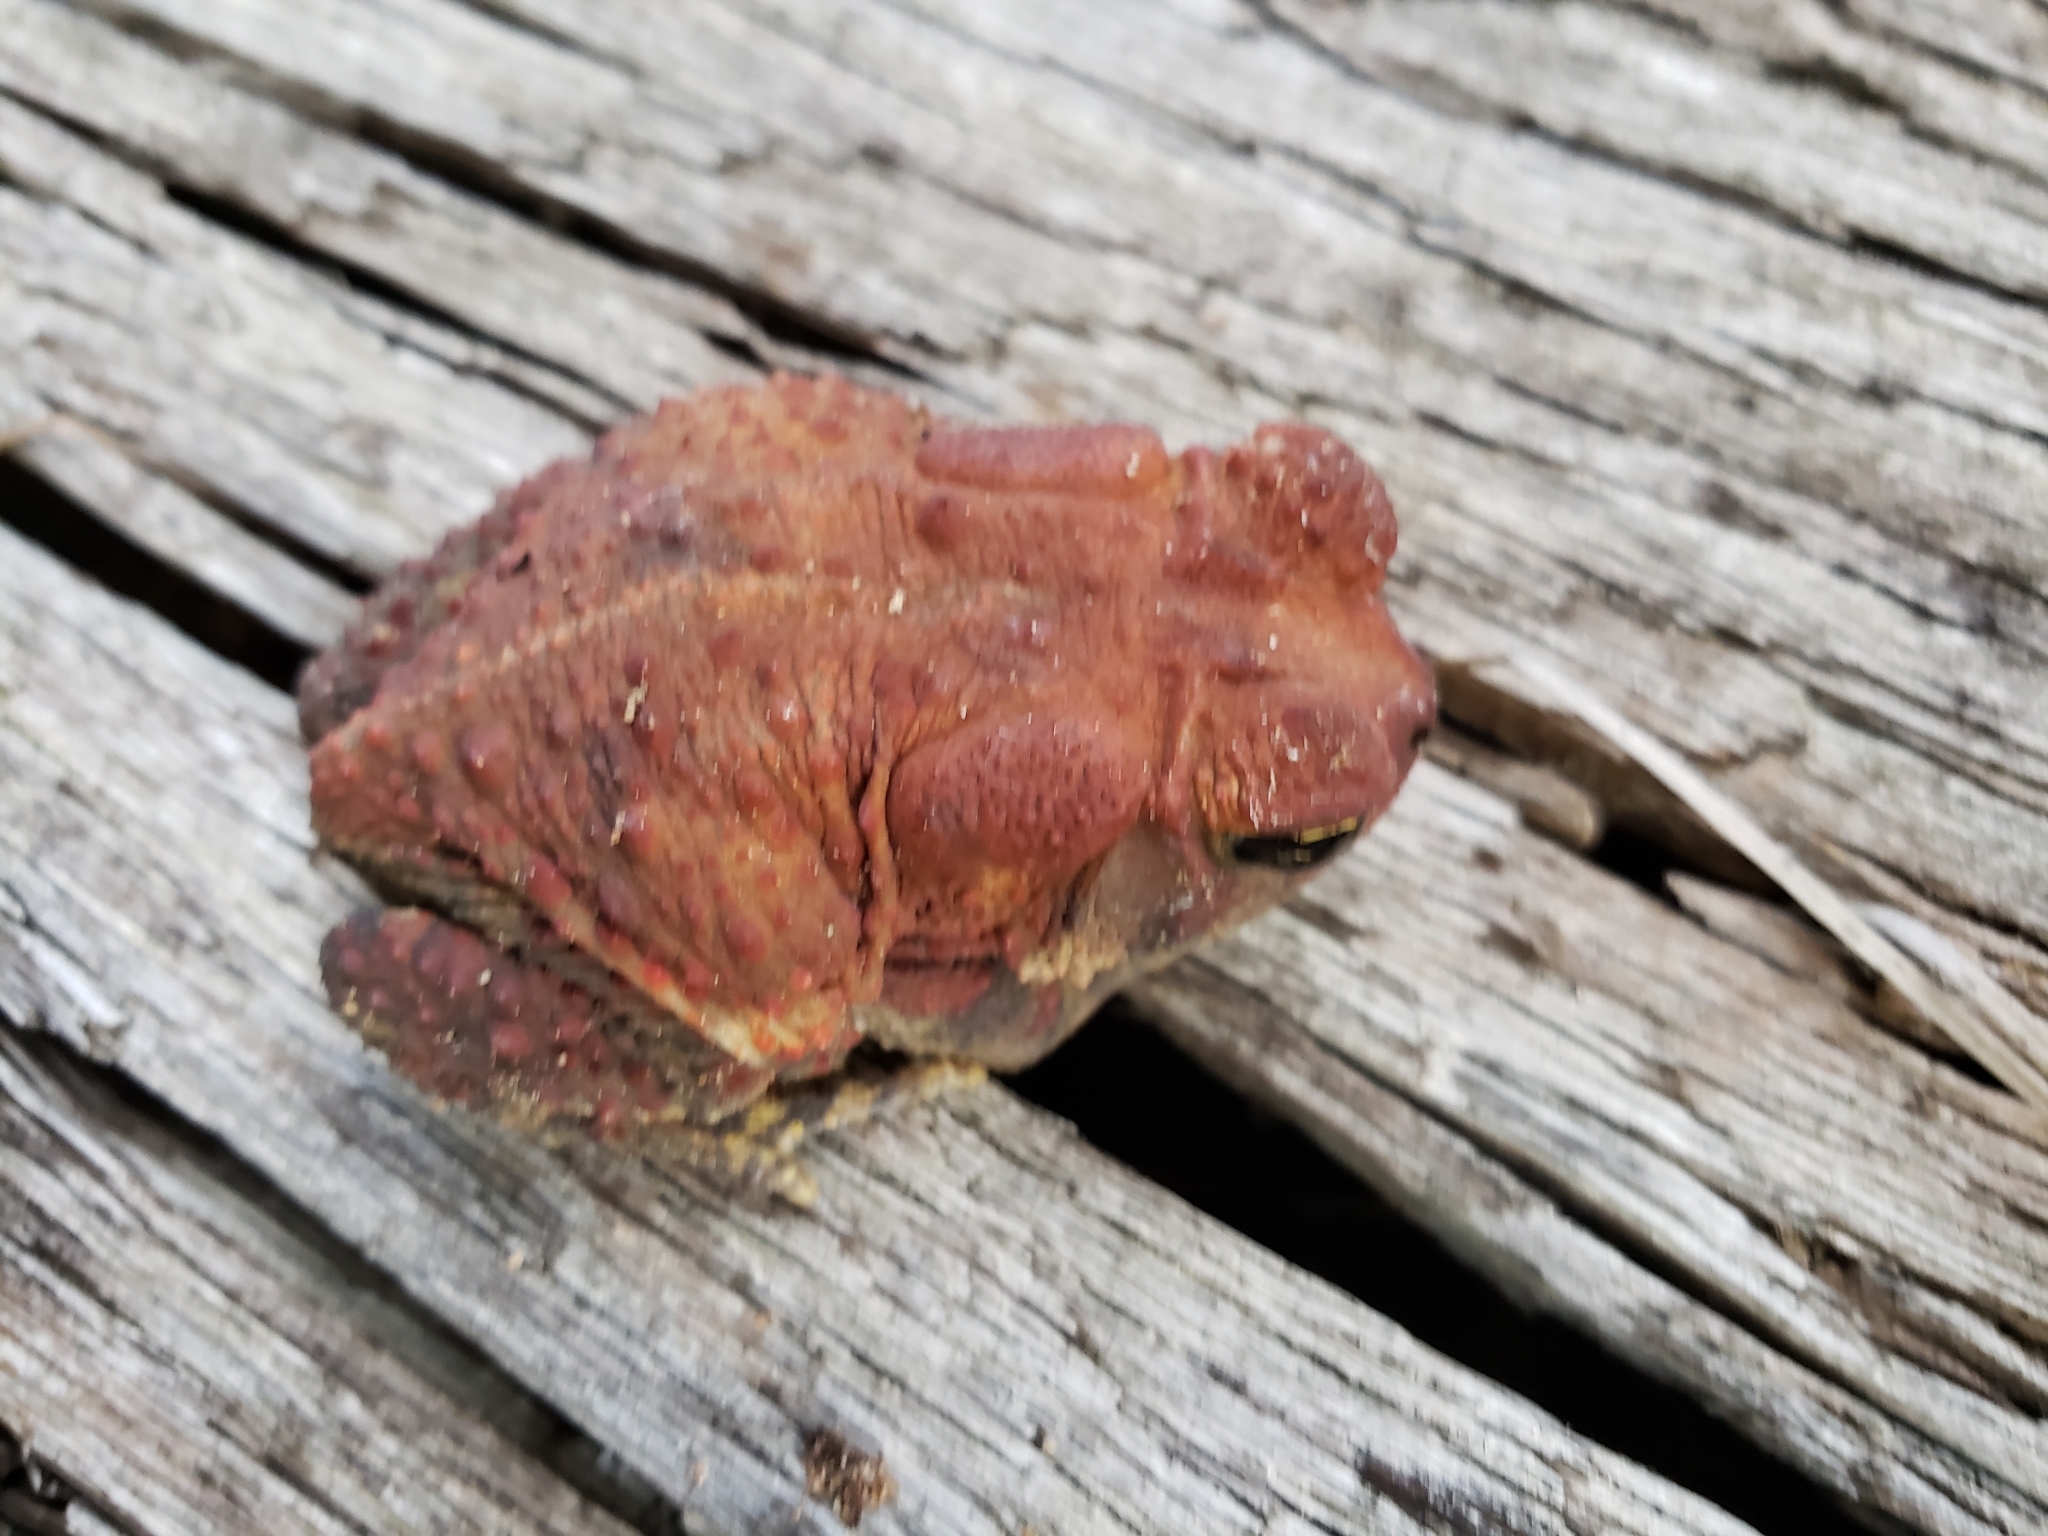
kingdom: Animalia
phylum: Chordata
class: Amphibia
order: Anura
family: Bufonidae
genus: Anaxyrus
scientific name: Anaxyrus americanus
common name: American toad
